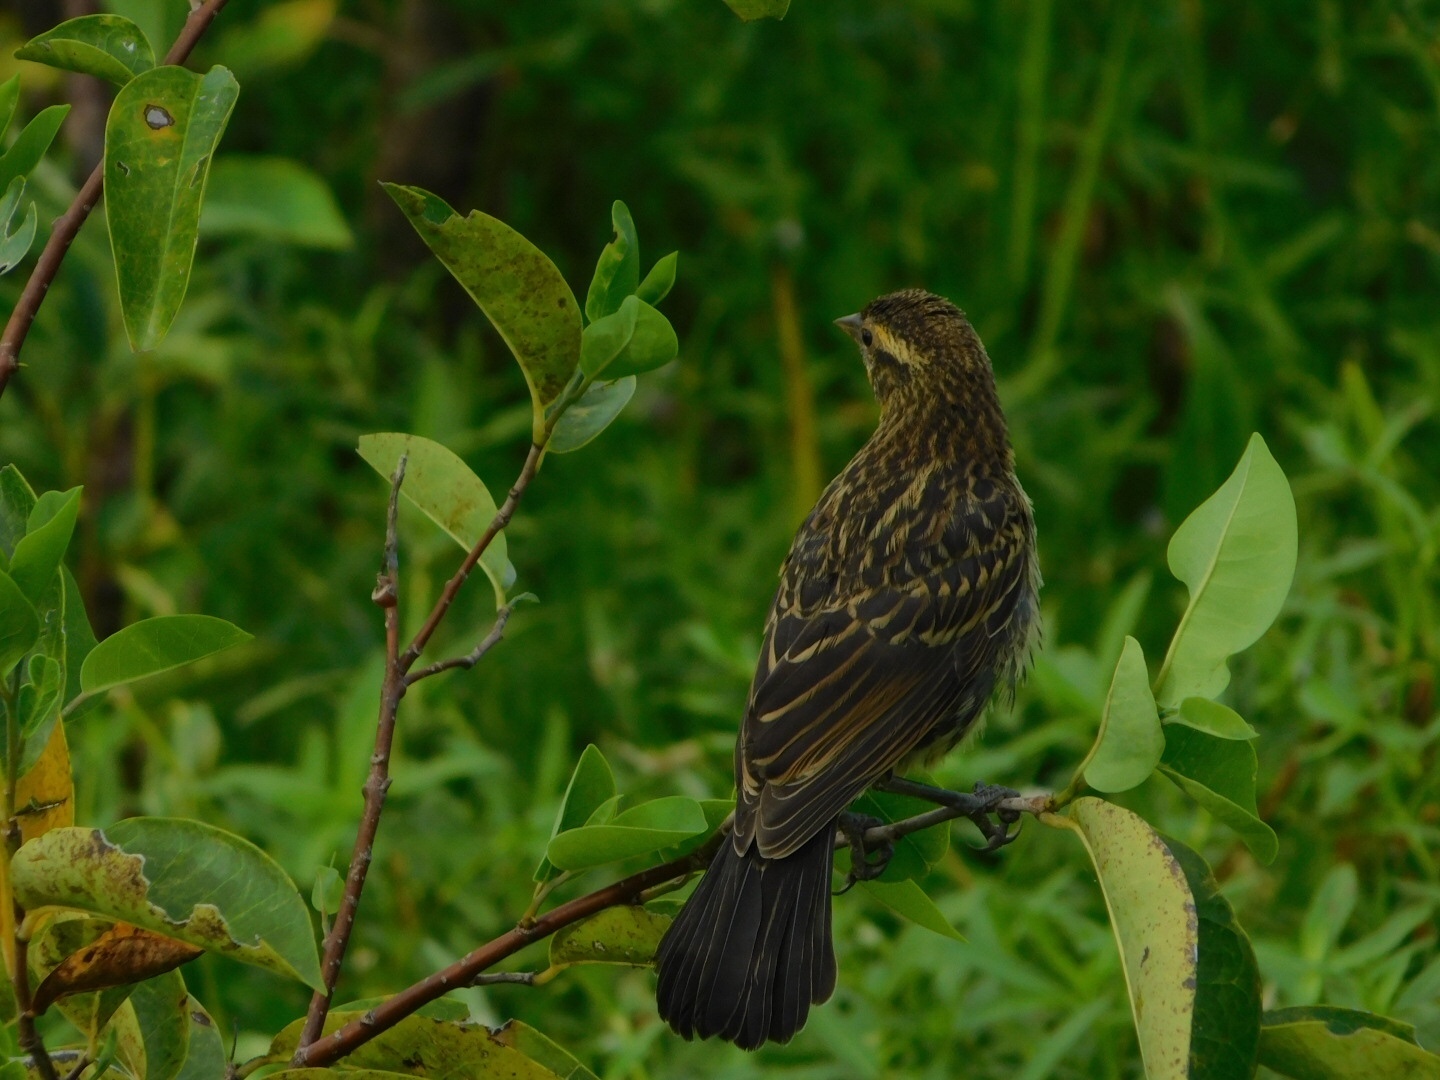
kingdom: Animalia
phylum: Chordata
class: Aves
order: Passeriformes
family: Icteridae
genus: Agelaius
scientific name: Agelaius phoeniceus
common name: Red-winged blackbird
